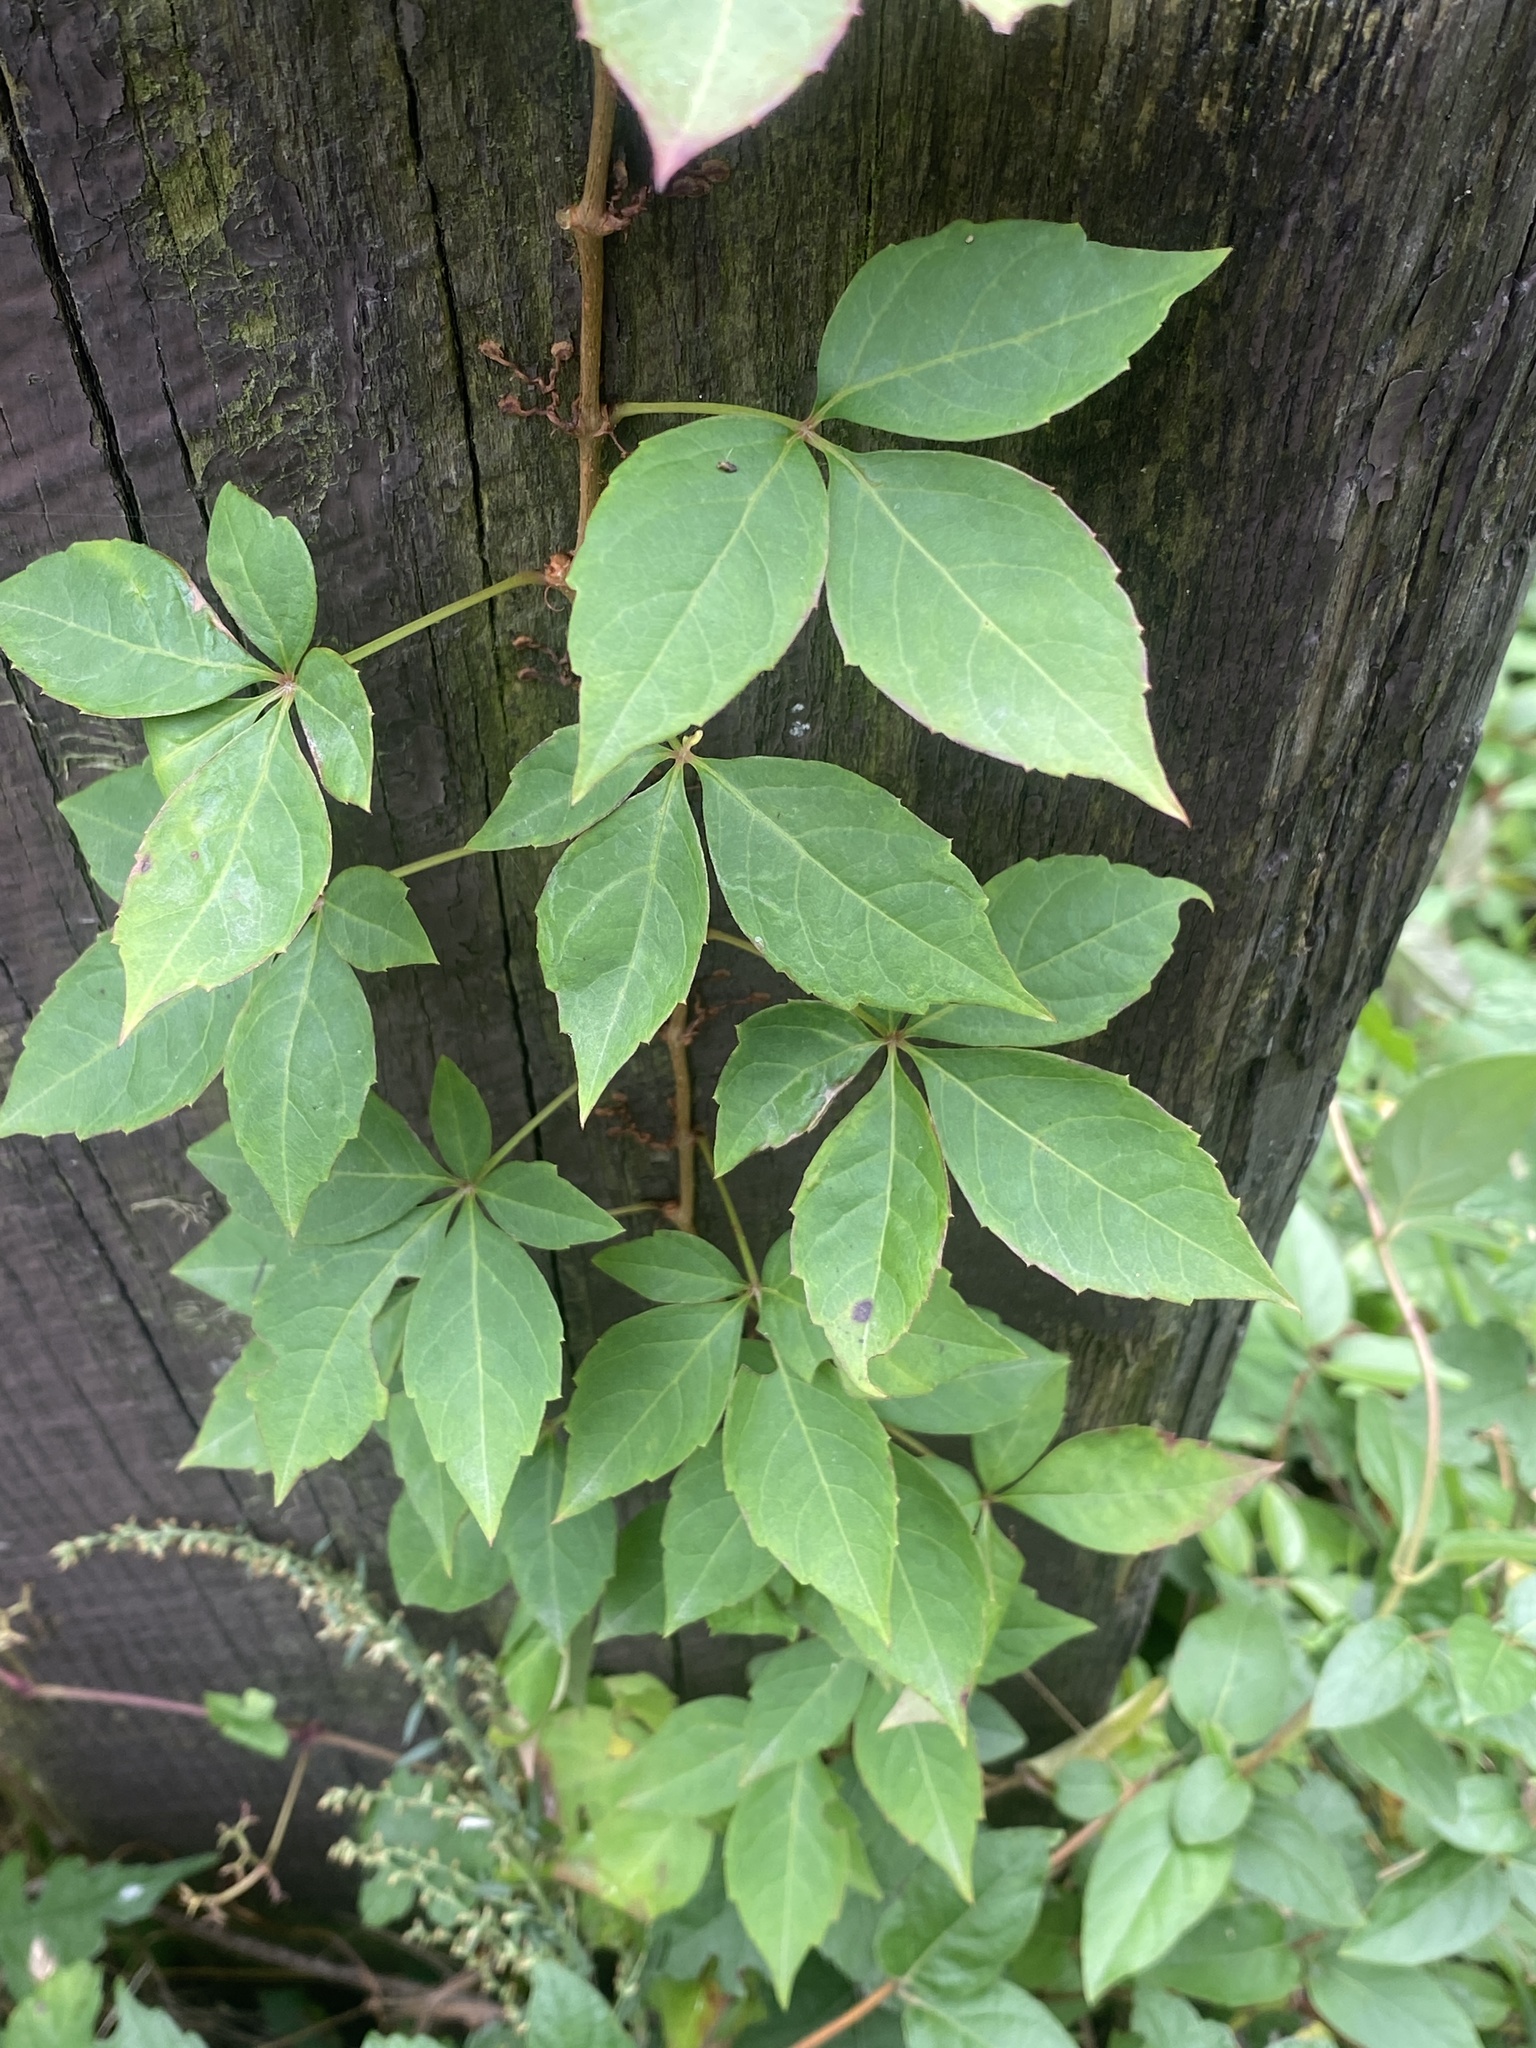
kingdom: Plantae
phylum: Tracheophyta
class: Magnoliopsida
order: Vitales
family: Vitaceae
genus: Parthenocissus
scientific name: Parthenocissus quinquefolia
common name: Virginia-creeper
